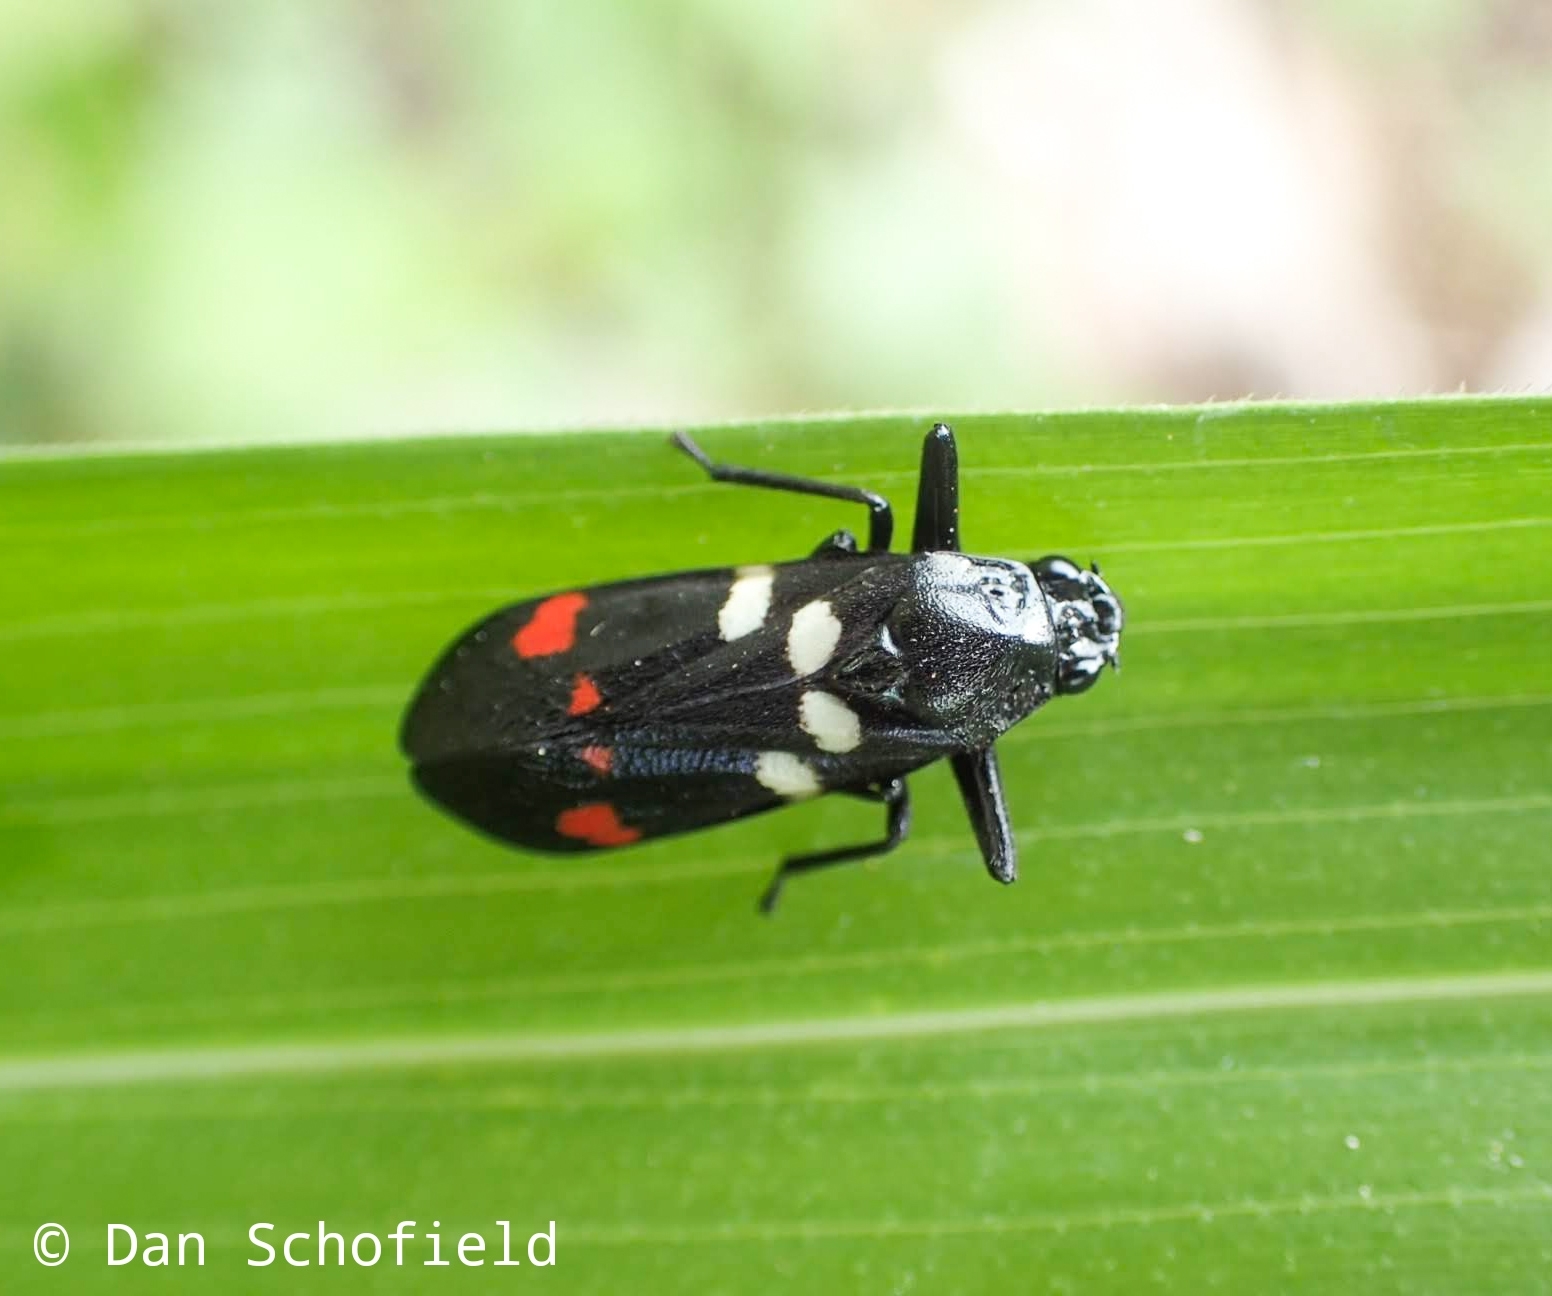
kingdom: Animalia
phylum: Arthropoda
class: Insecta
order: Hemiptera
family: Cercopidae
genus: Callitettix
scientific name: Callitettix versicolor
